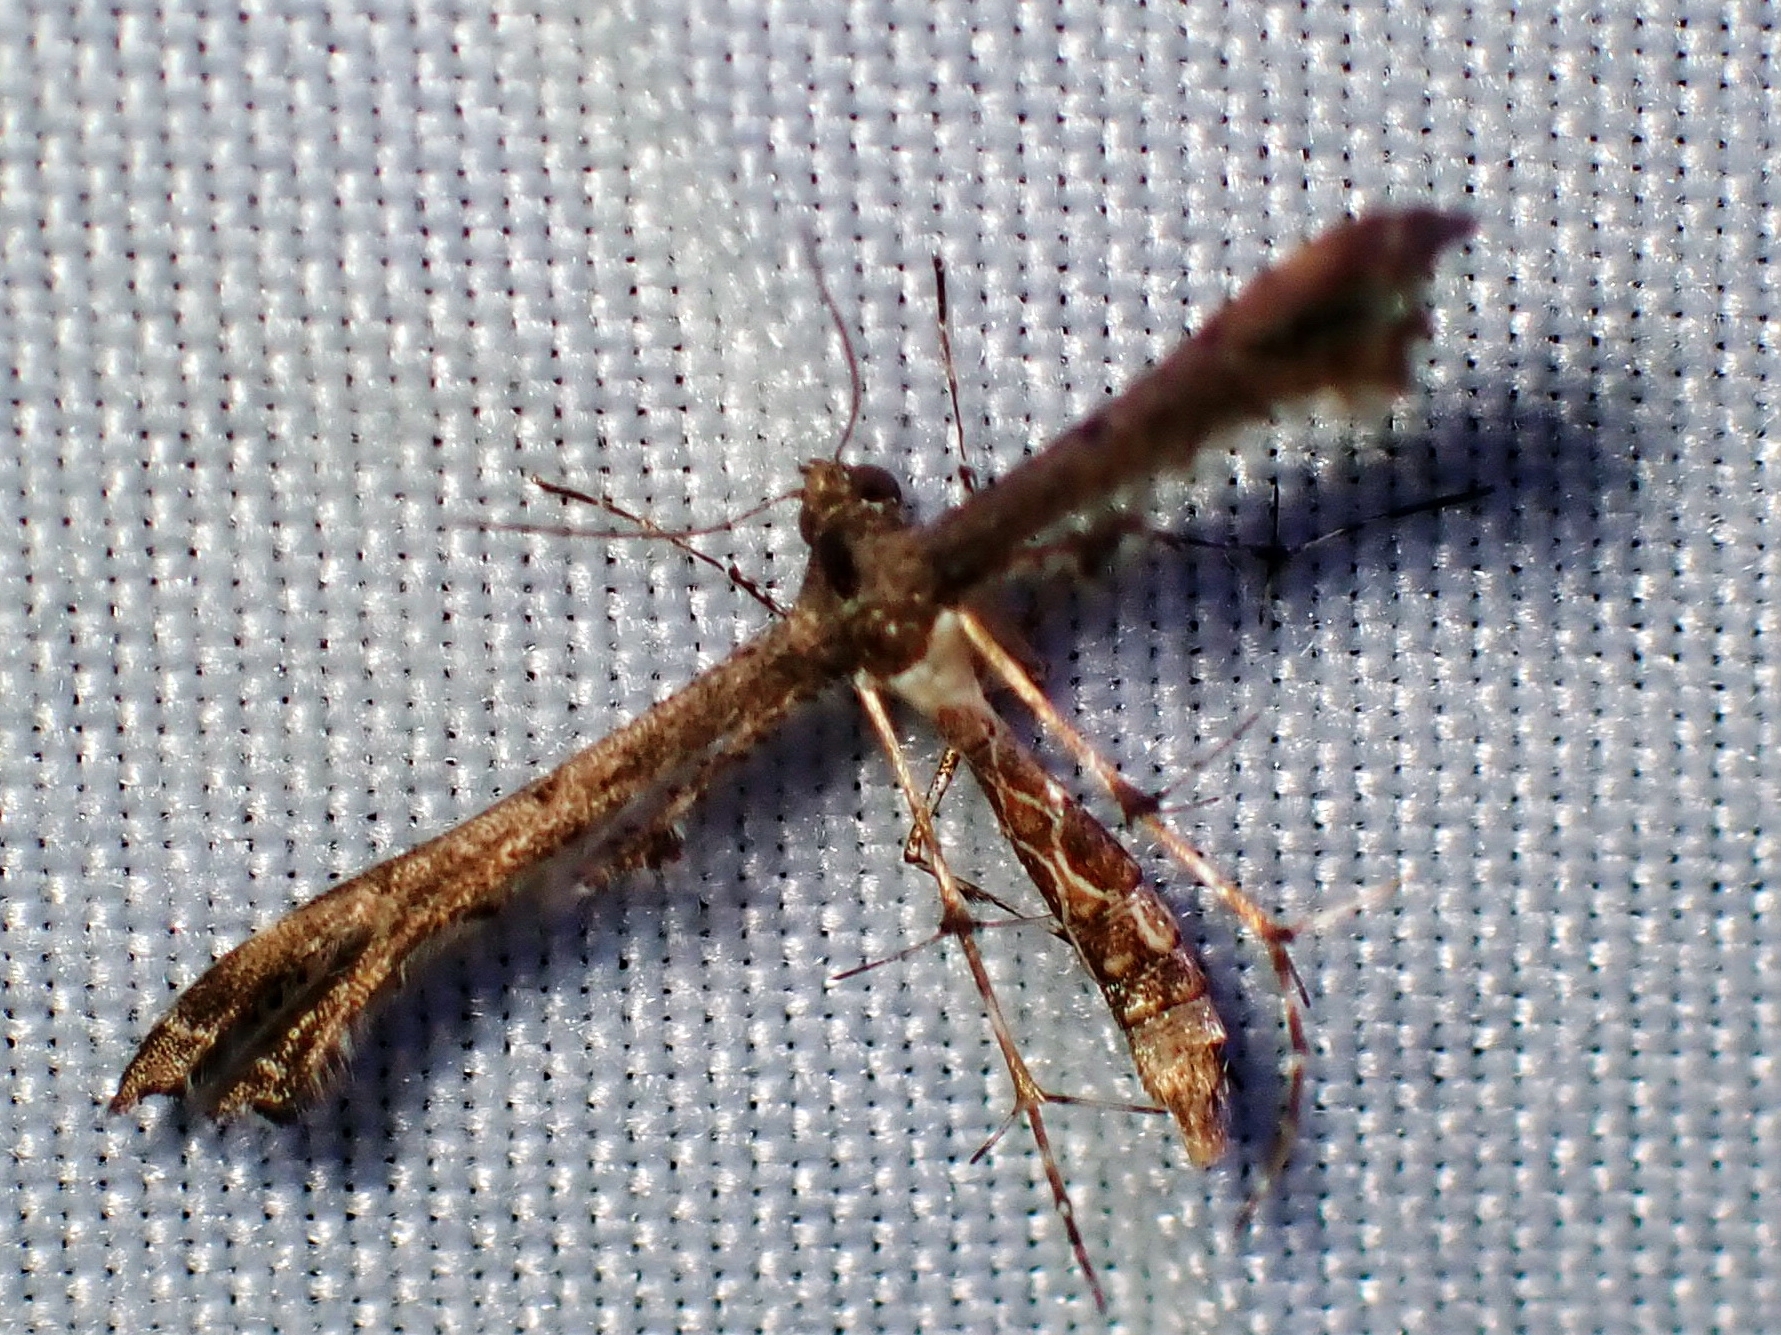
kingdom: Animalia
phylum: Arthropoda
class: Insecta
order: Lepidoptera
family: Pterophoridae
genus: Michaelophorus
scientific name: Michaelophorus indentatus
